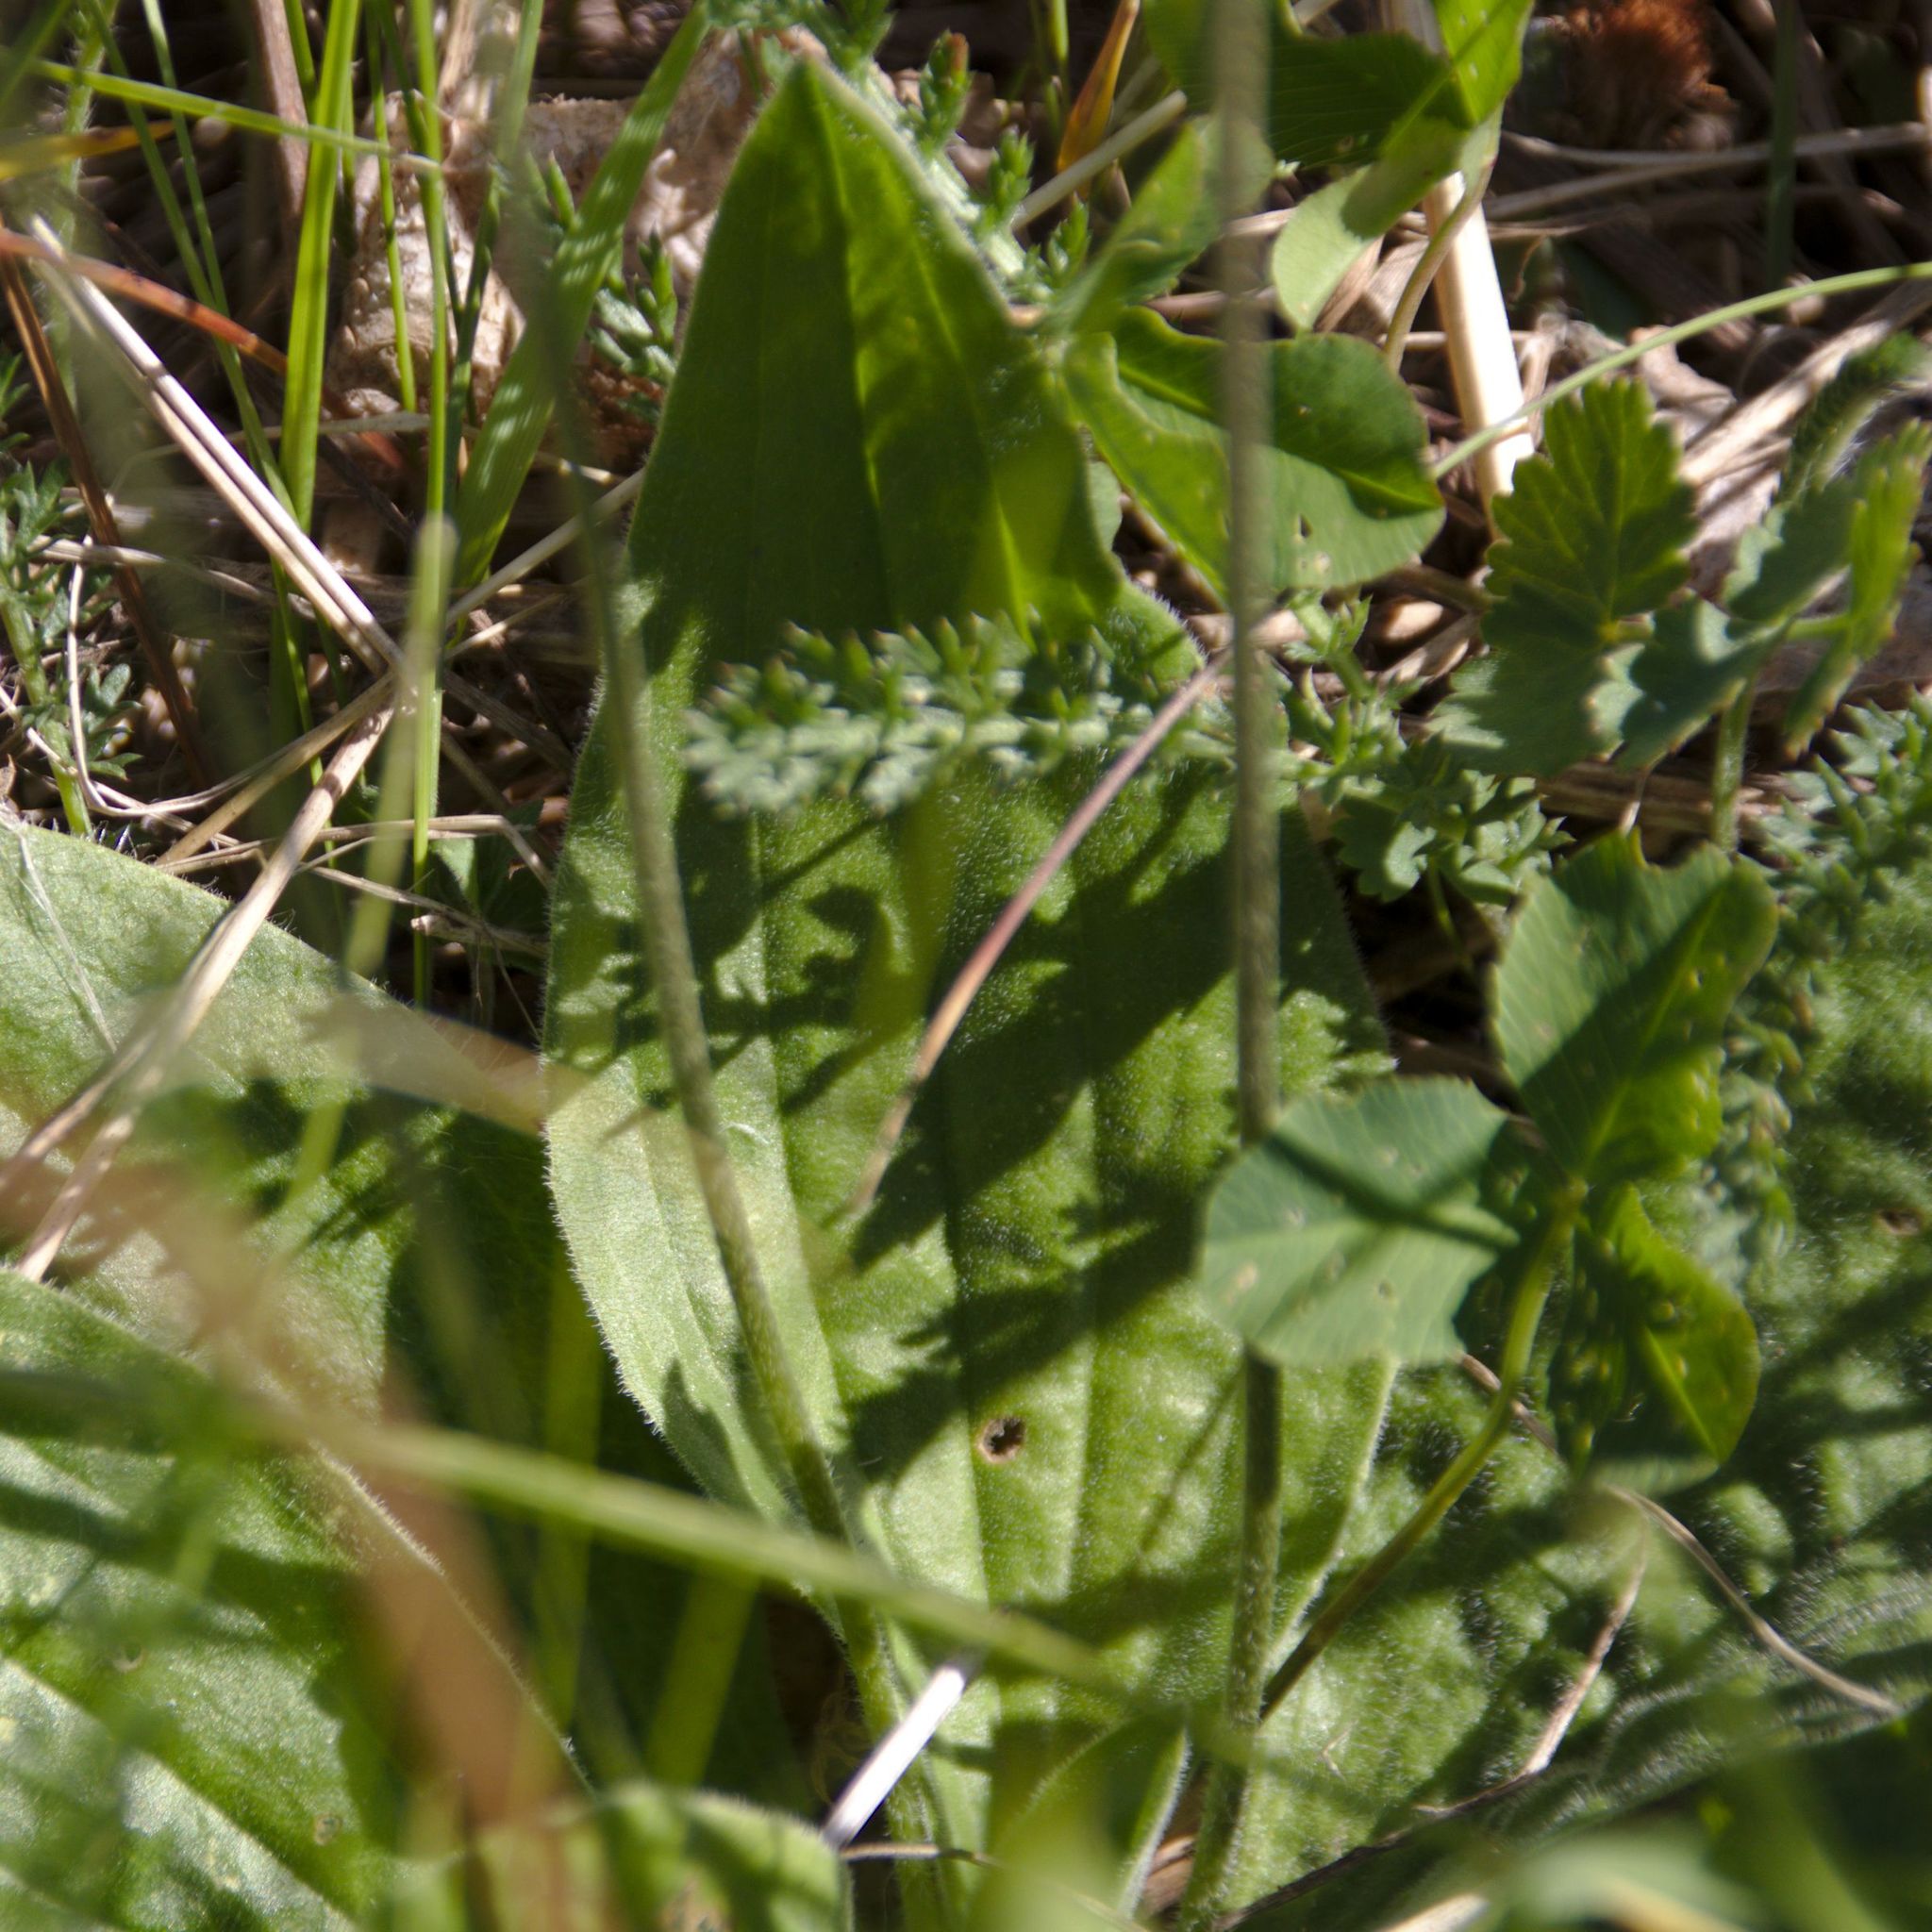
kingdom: Plantae
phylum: Tracheophyta
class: Magnoliopsida
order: Lamiales
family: Plantaginaceae
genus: Plantago
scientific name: Plantago media
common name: Hoary plantain
